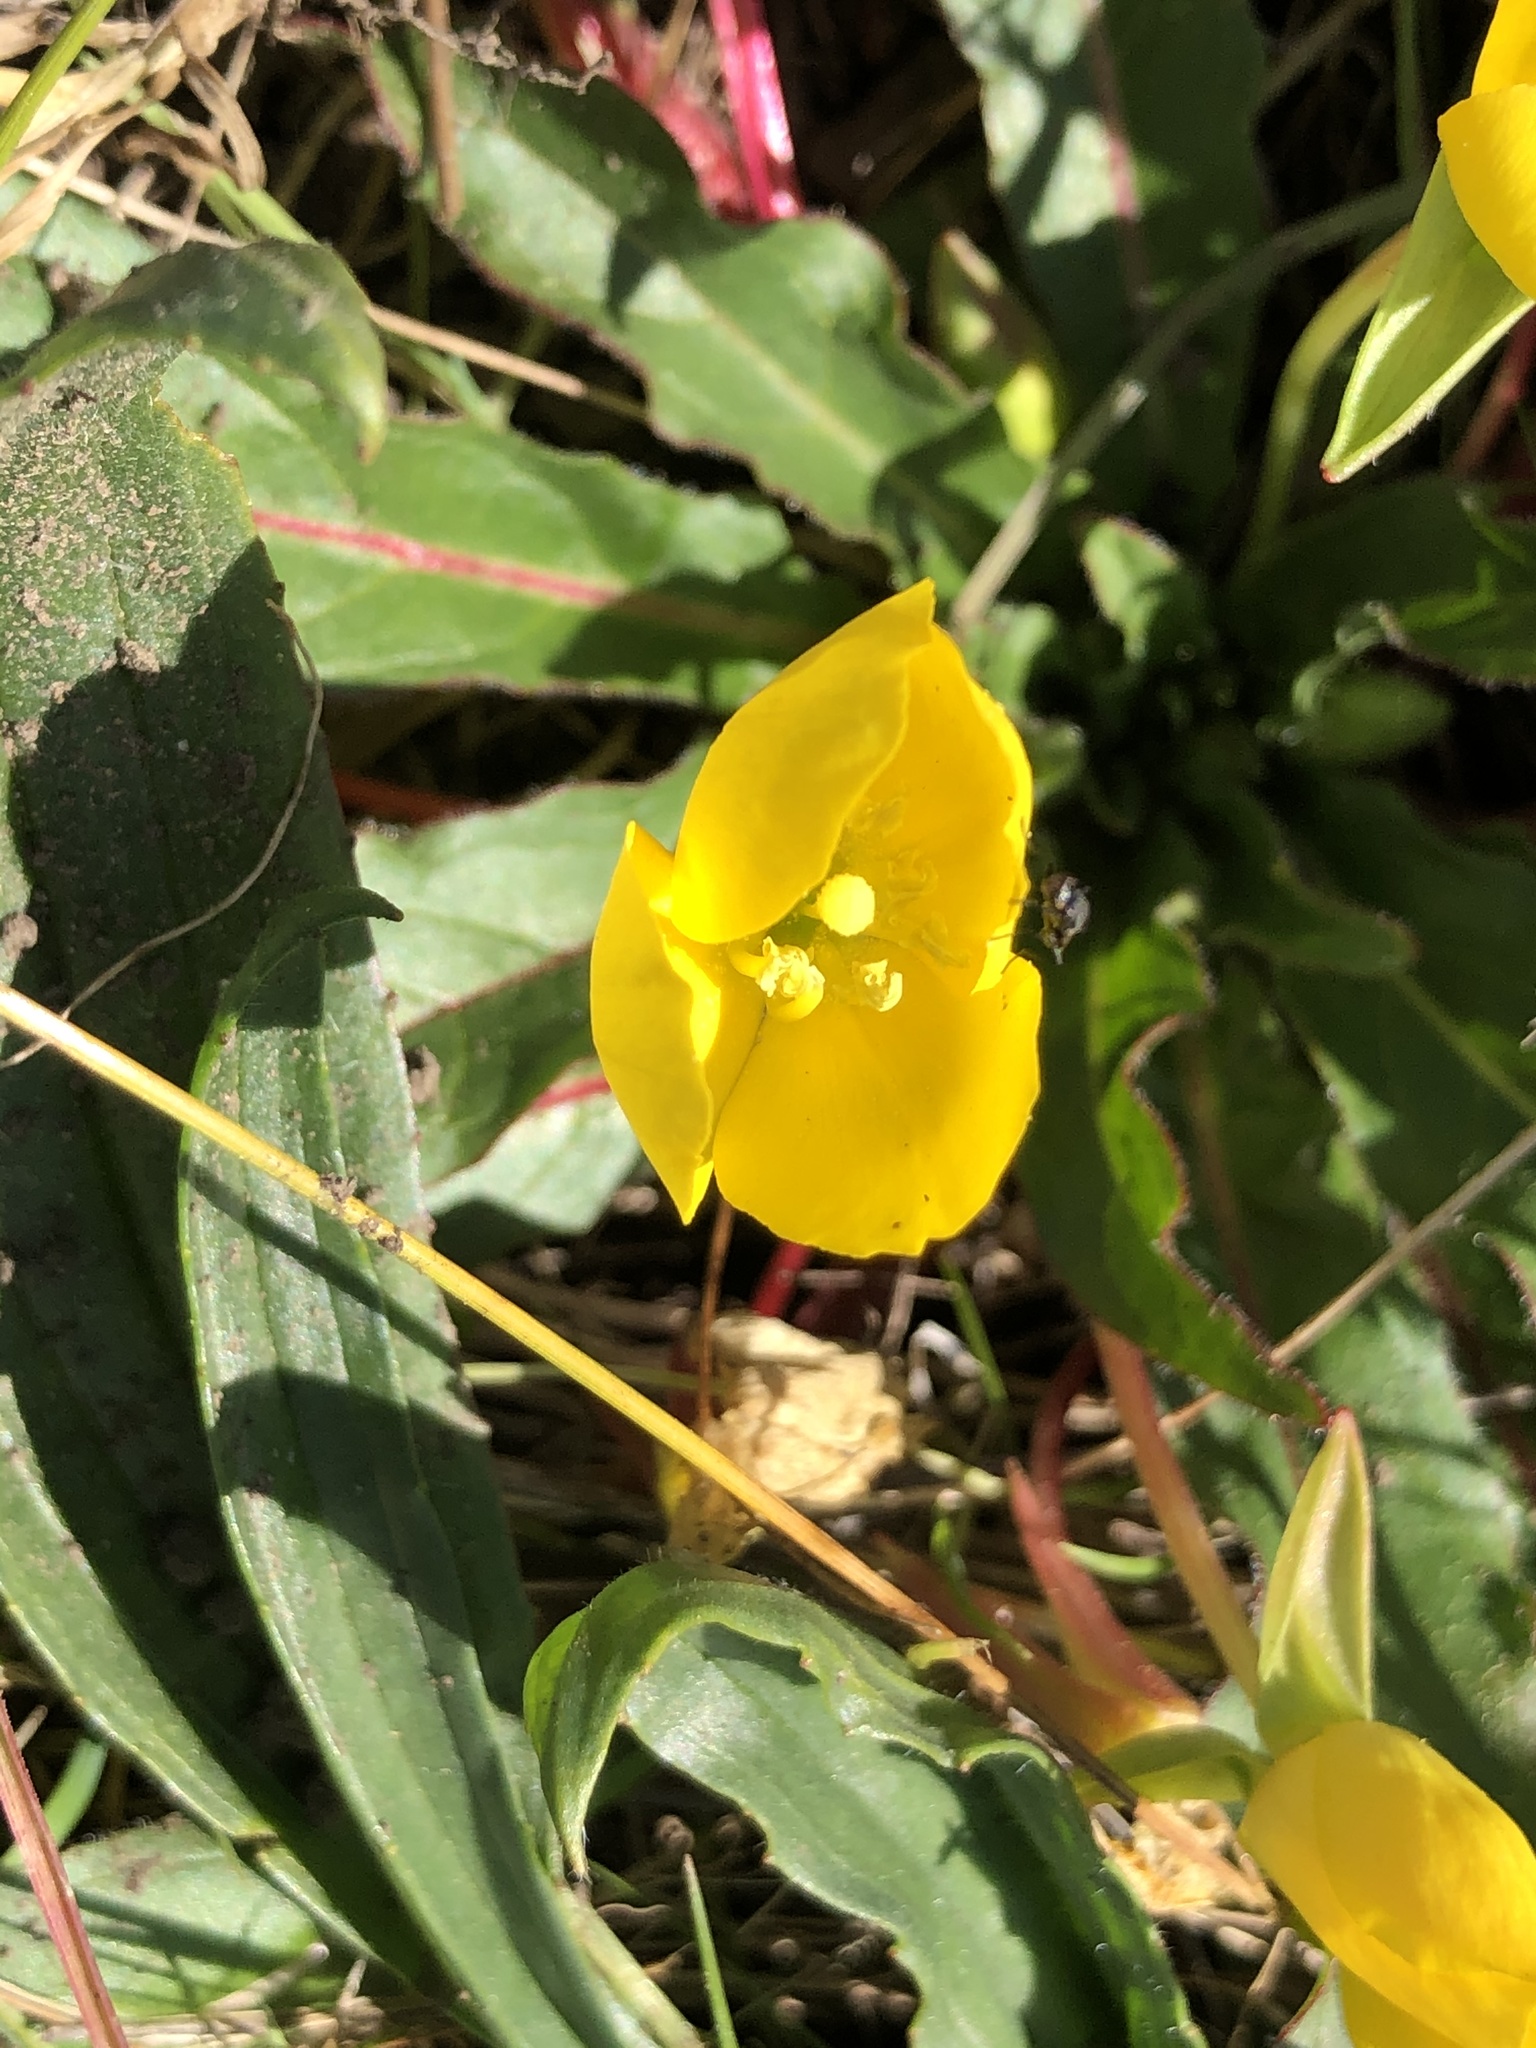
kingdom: Plantae
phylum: Tracheophyta
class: Magnoliopsida
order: Myrtales
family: Onagraceae
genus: Taraxia
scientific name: Taraxia ovata
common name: Goldeneggs
